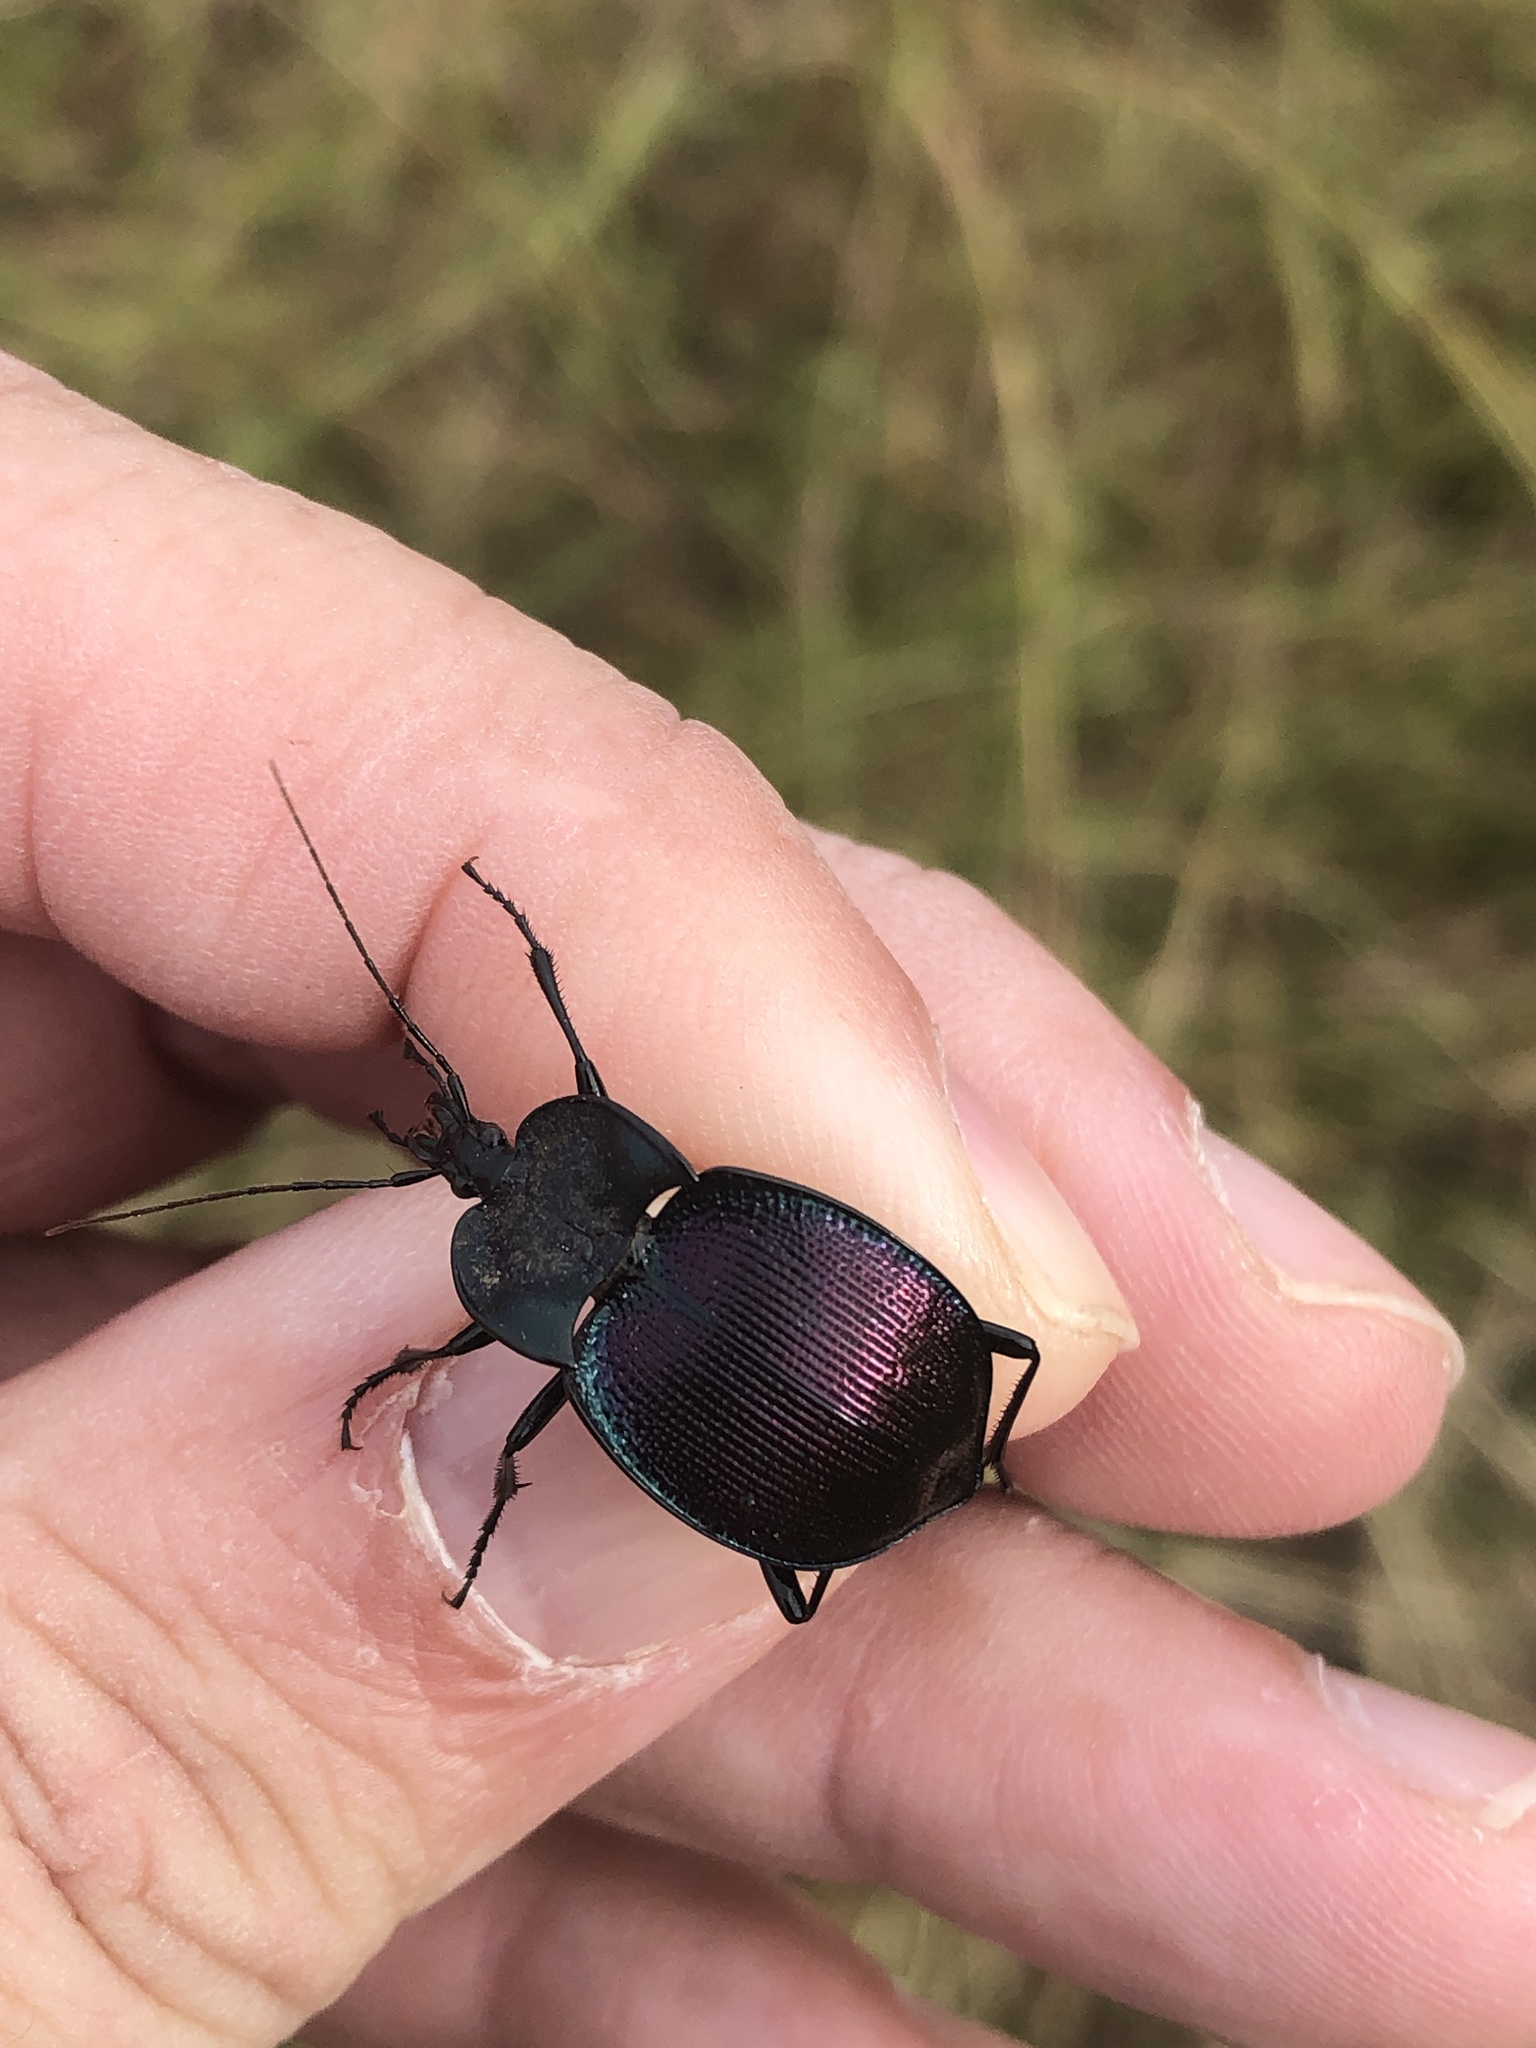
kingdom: Animalia
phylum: Arthropoda
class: Insecta
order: Coleoptera
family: Carabidae
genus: Scaphinotus
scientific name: Scaphinotus elevatus
